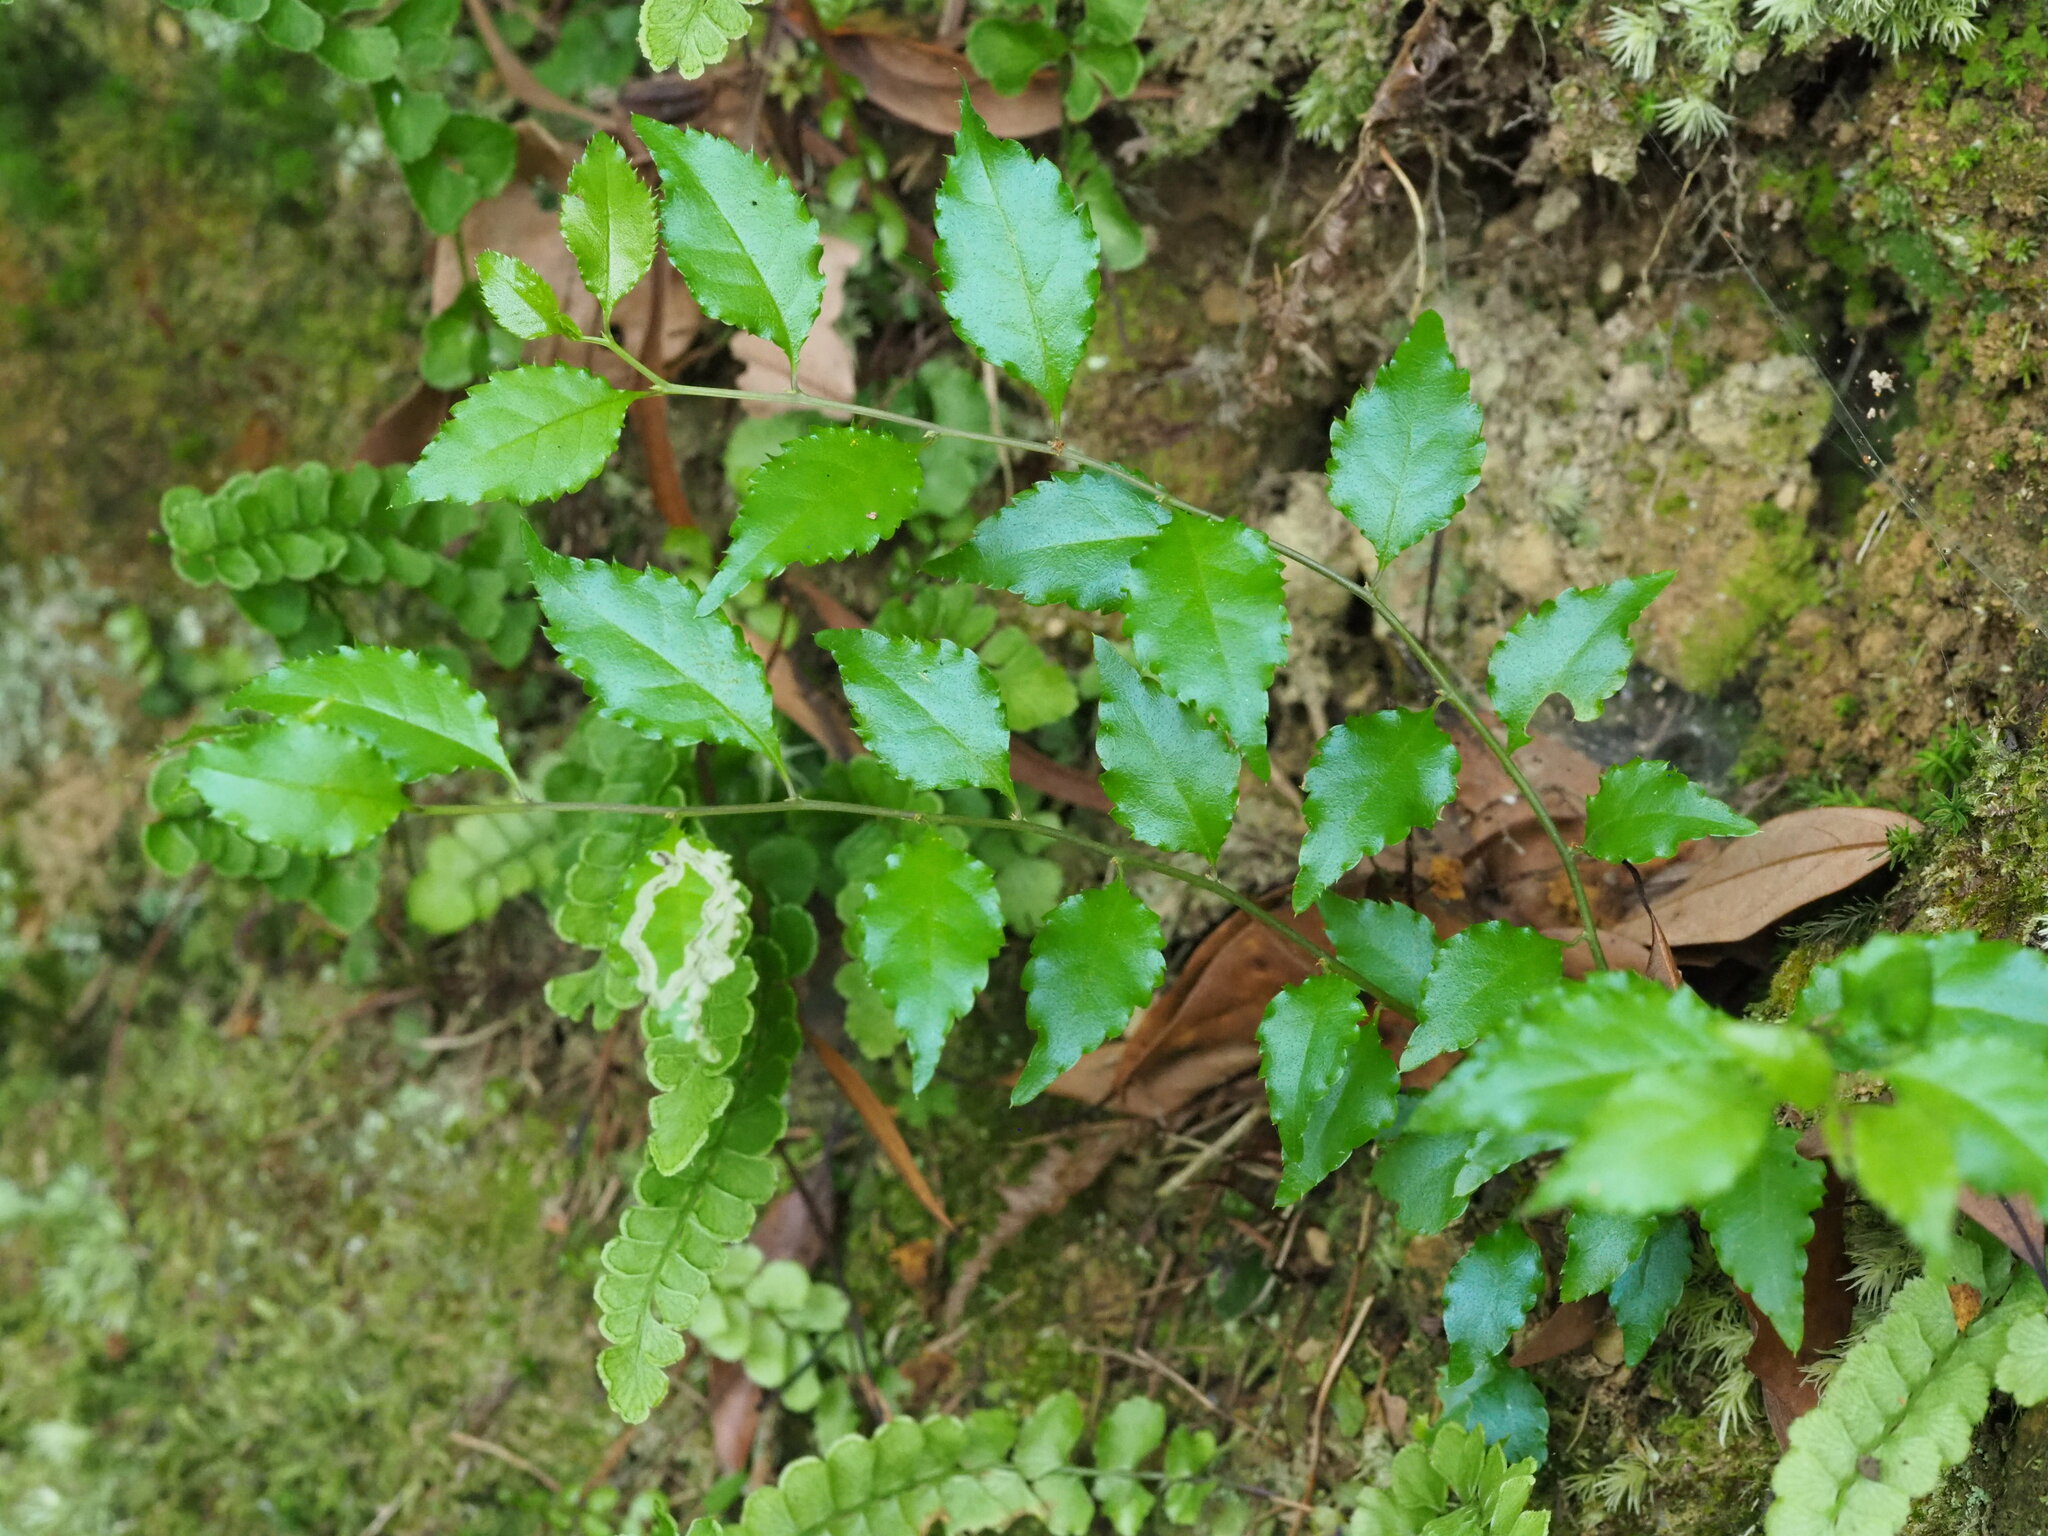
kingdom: Plantae
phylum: Tracheophyta
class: Magnoliopsida
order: Aquifoliales
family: Aquifoliaceae
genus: Ilex
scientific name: Ilex asprella
